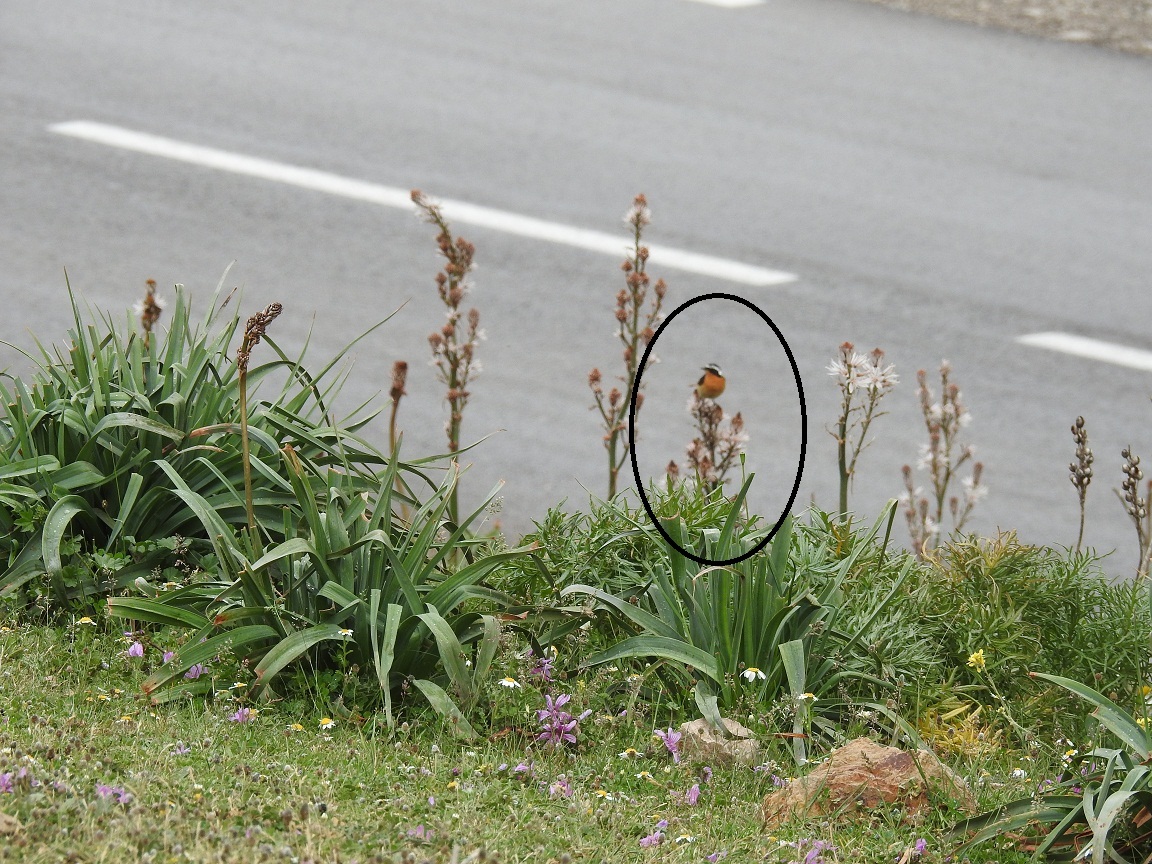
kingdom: Animalia
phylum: Chordata
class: Aves
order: Passeriformes
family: Muscicapidae
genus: Phoenicurus
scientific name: Phoenicurus moussieri
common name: Moussier's redstart
